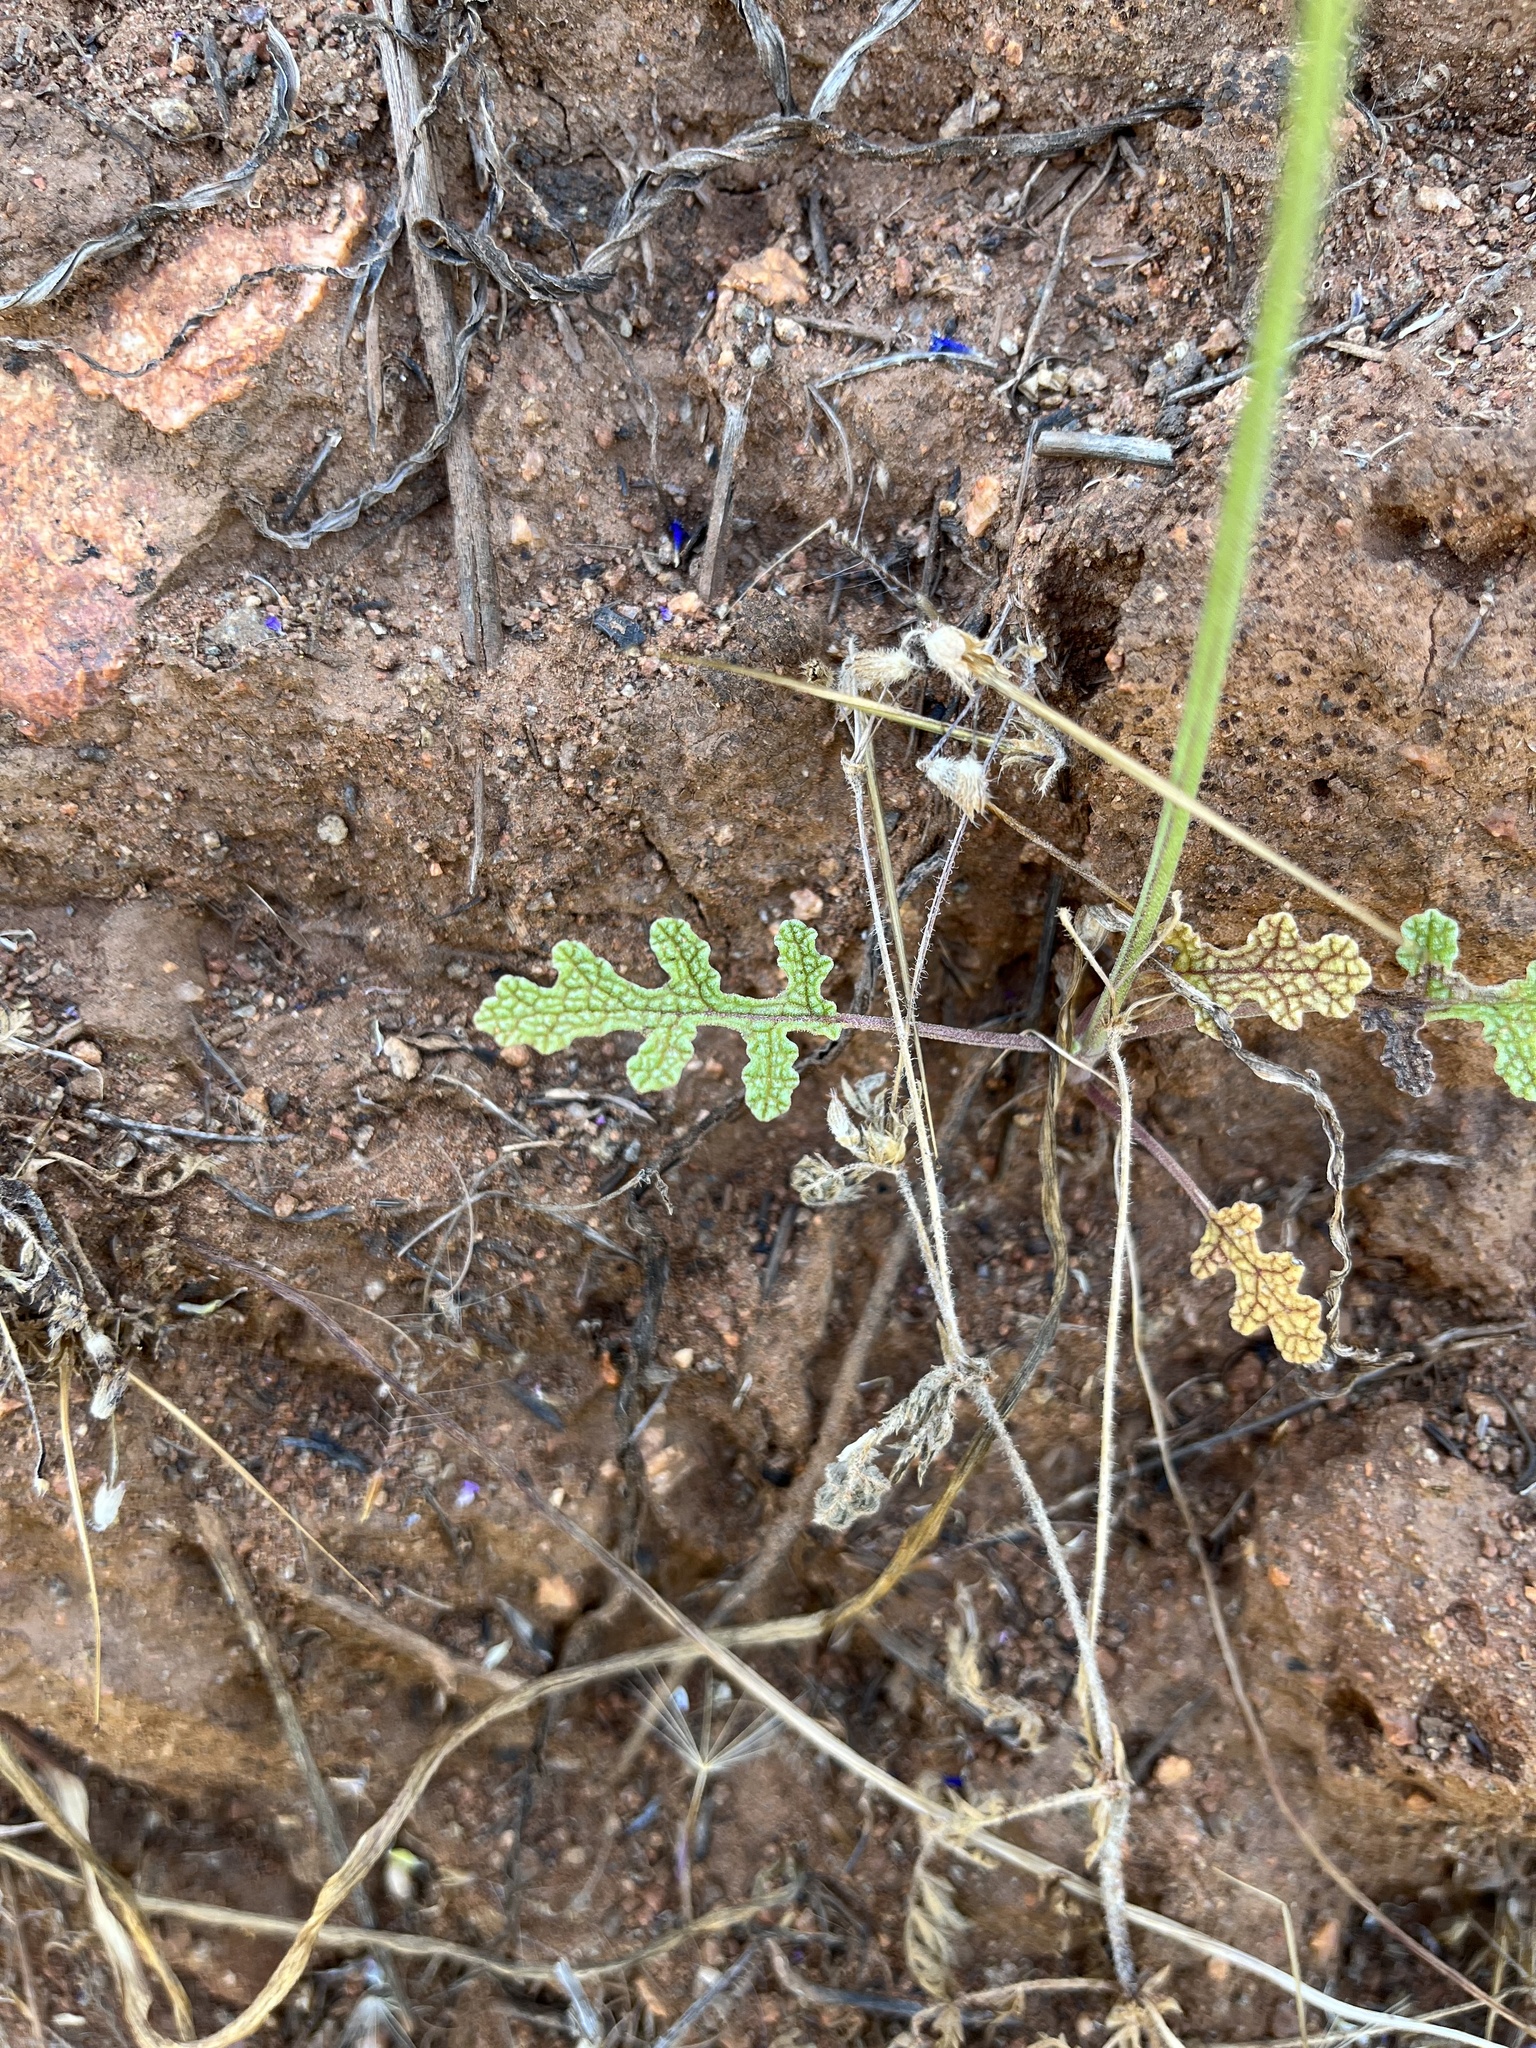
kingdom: Plantae
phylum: Tracheophyta
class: Magnoliopsida
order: Lamiales
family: Lamiaceae
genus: Salvia
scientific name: Salvia columbariae
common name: Chia
